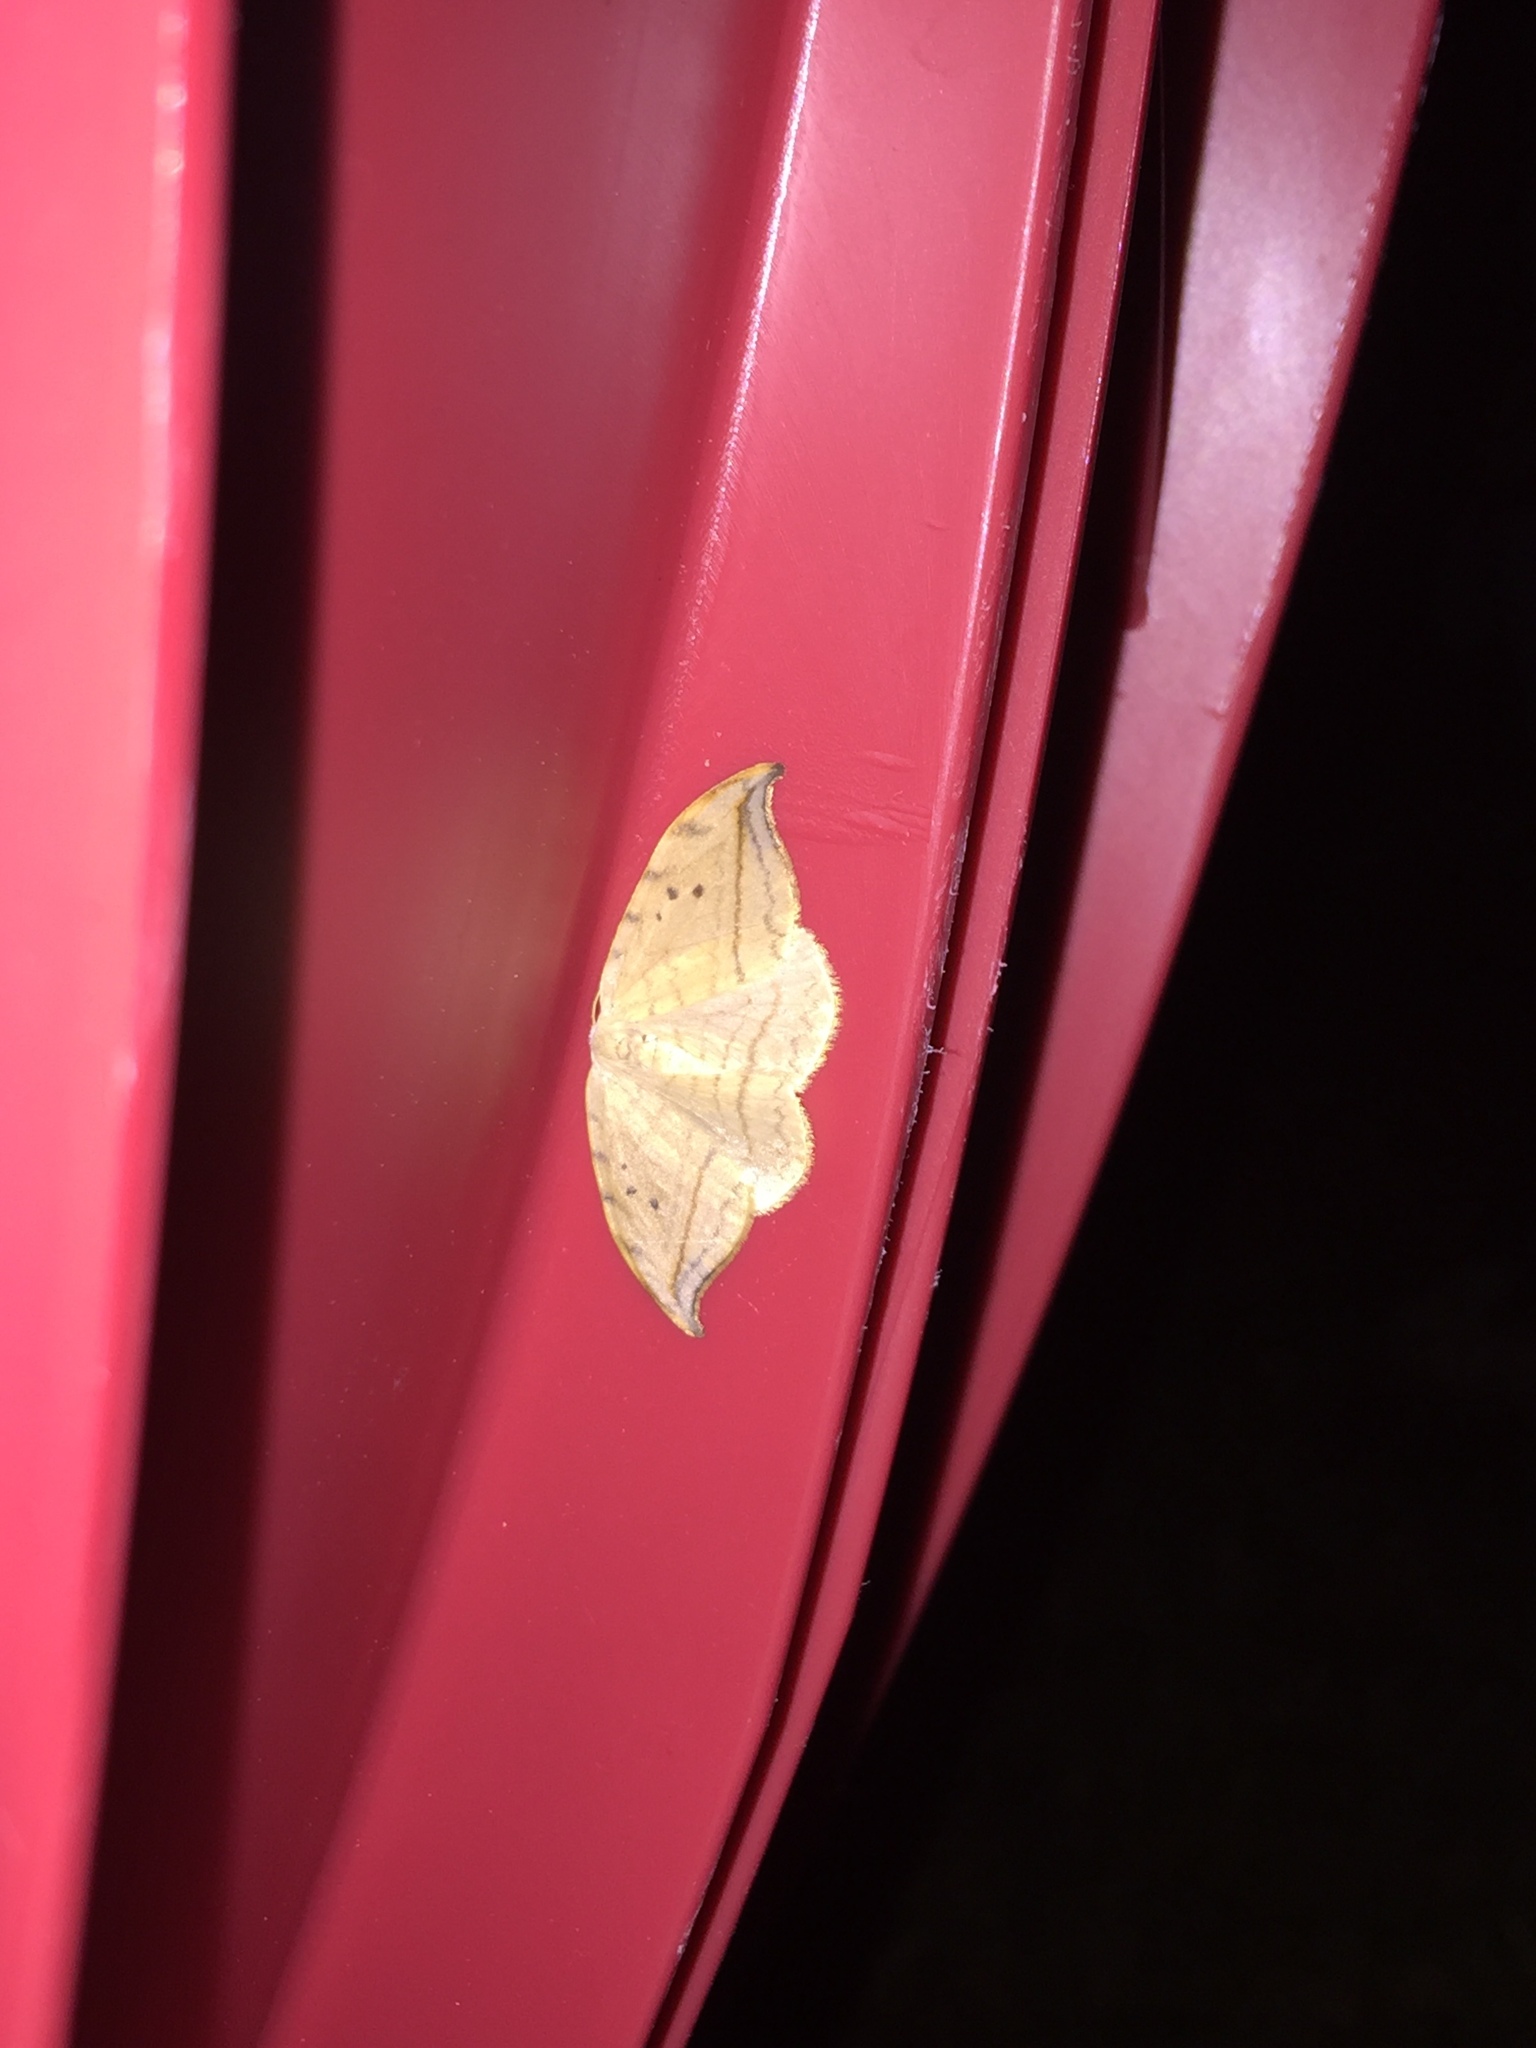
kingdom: Animalia
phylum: Arthropoda
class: Insecta
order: Lepidoptera
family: Drepanidae
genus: Drepana
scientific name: Drepana arcuata
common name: Arched hooktip moth
